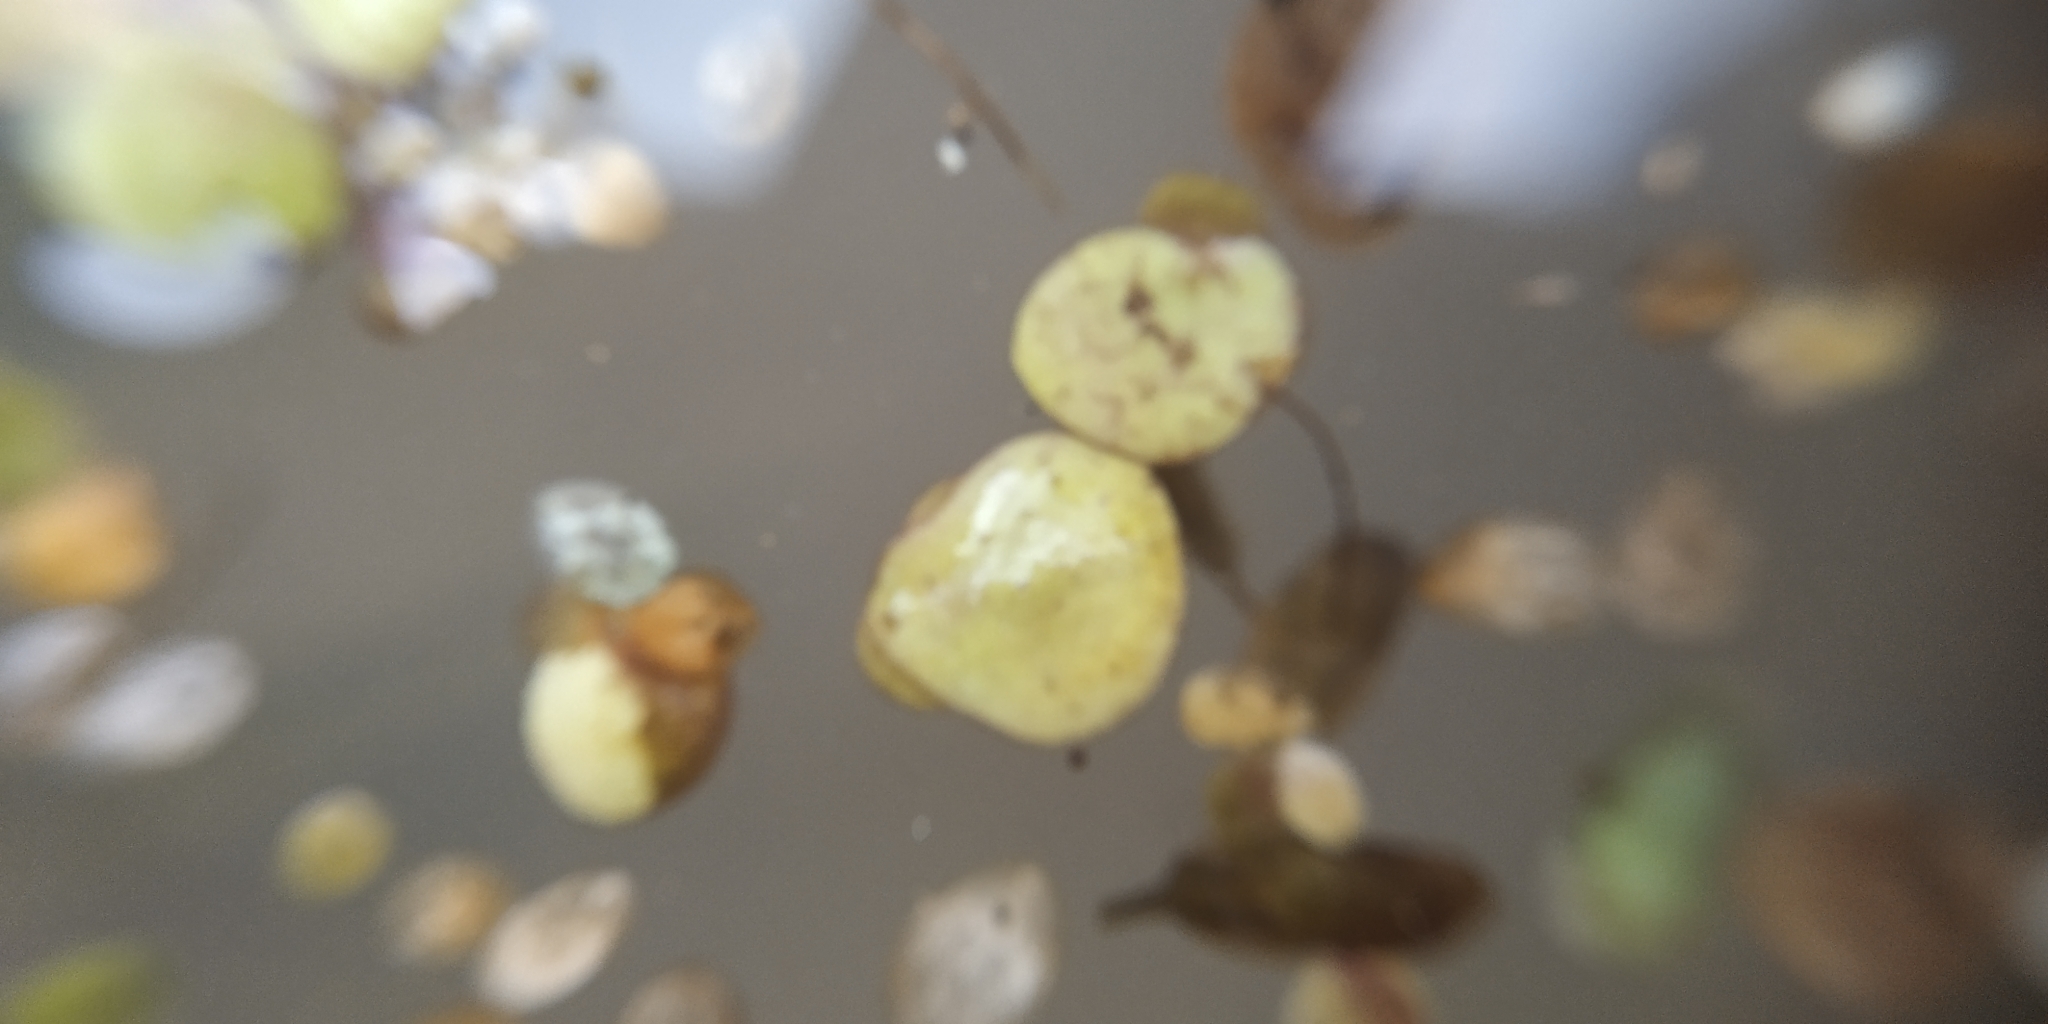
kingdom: Plantae
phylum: Tracheophyta
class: Liliopsida
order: Alismatales
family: Araceae
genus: Spirodela
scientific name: Spirodela polyrhiza
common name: Great duckweed
